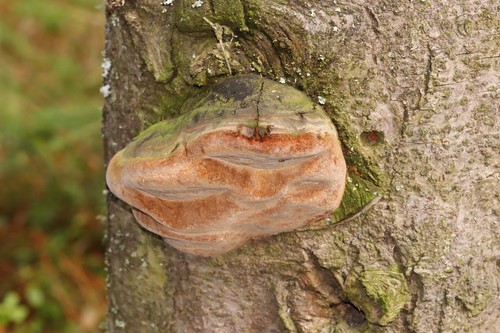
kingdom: Fungi
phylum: Basidiomycota
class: Agaricomycetes
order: Hymenochaetales
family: Hymenochaetaceae
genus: Phellinus
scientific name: Phellinus hartigii
